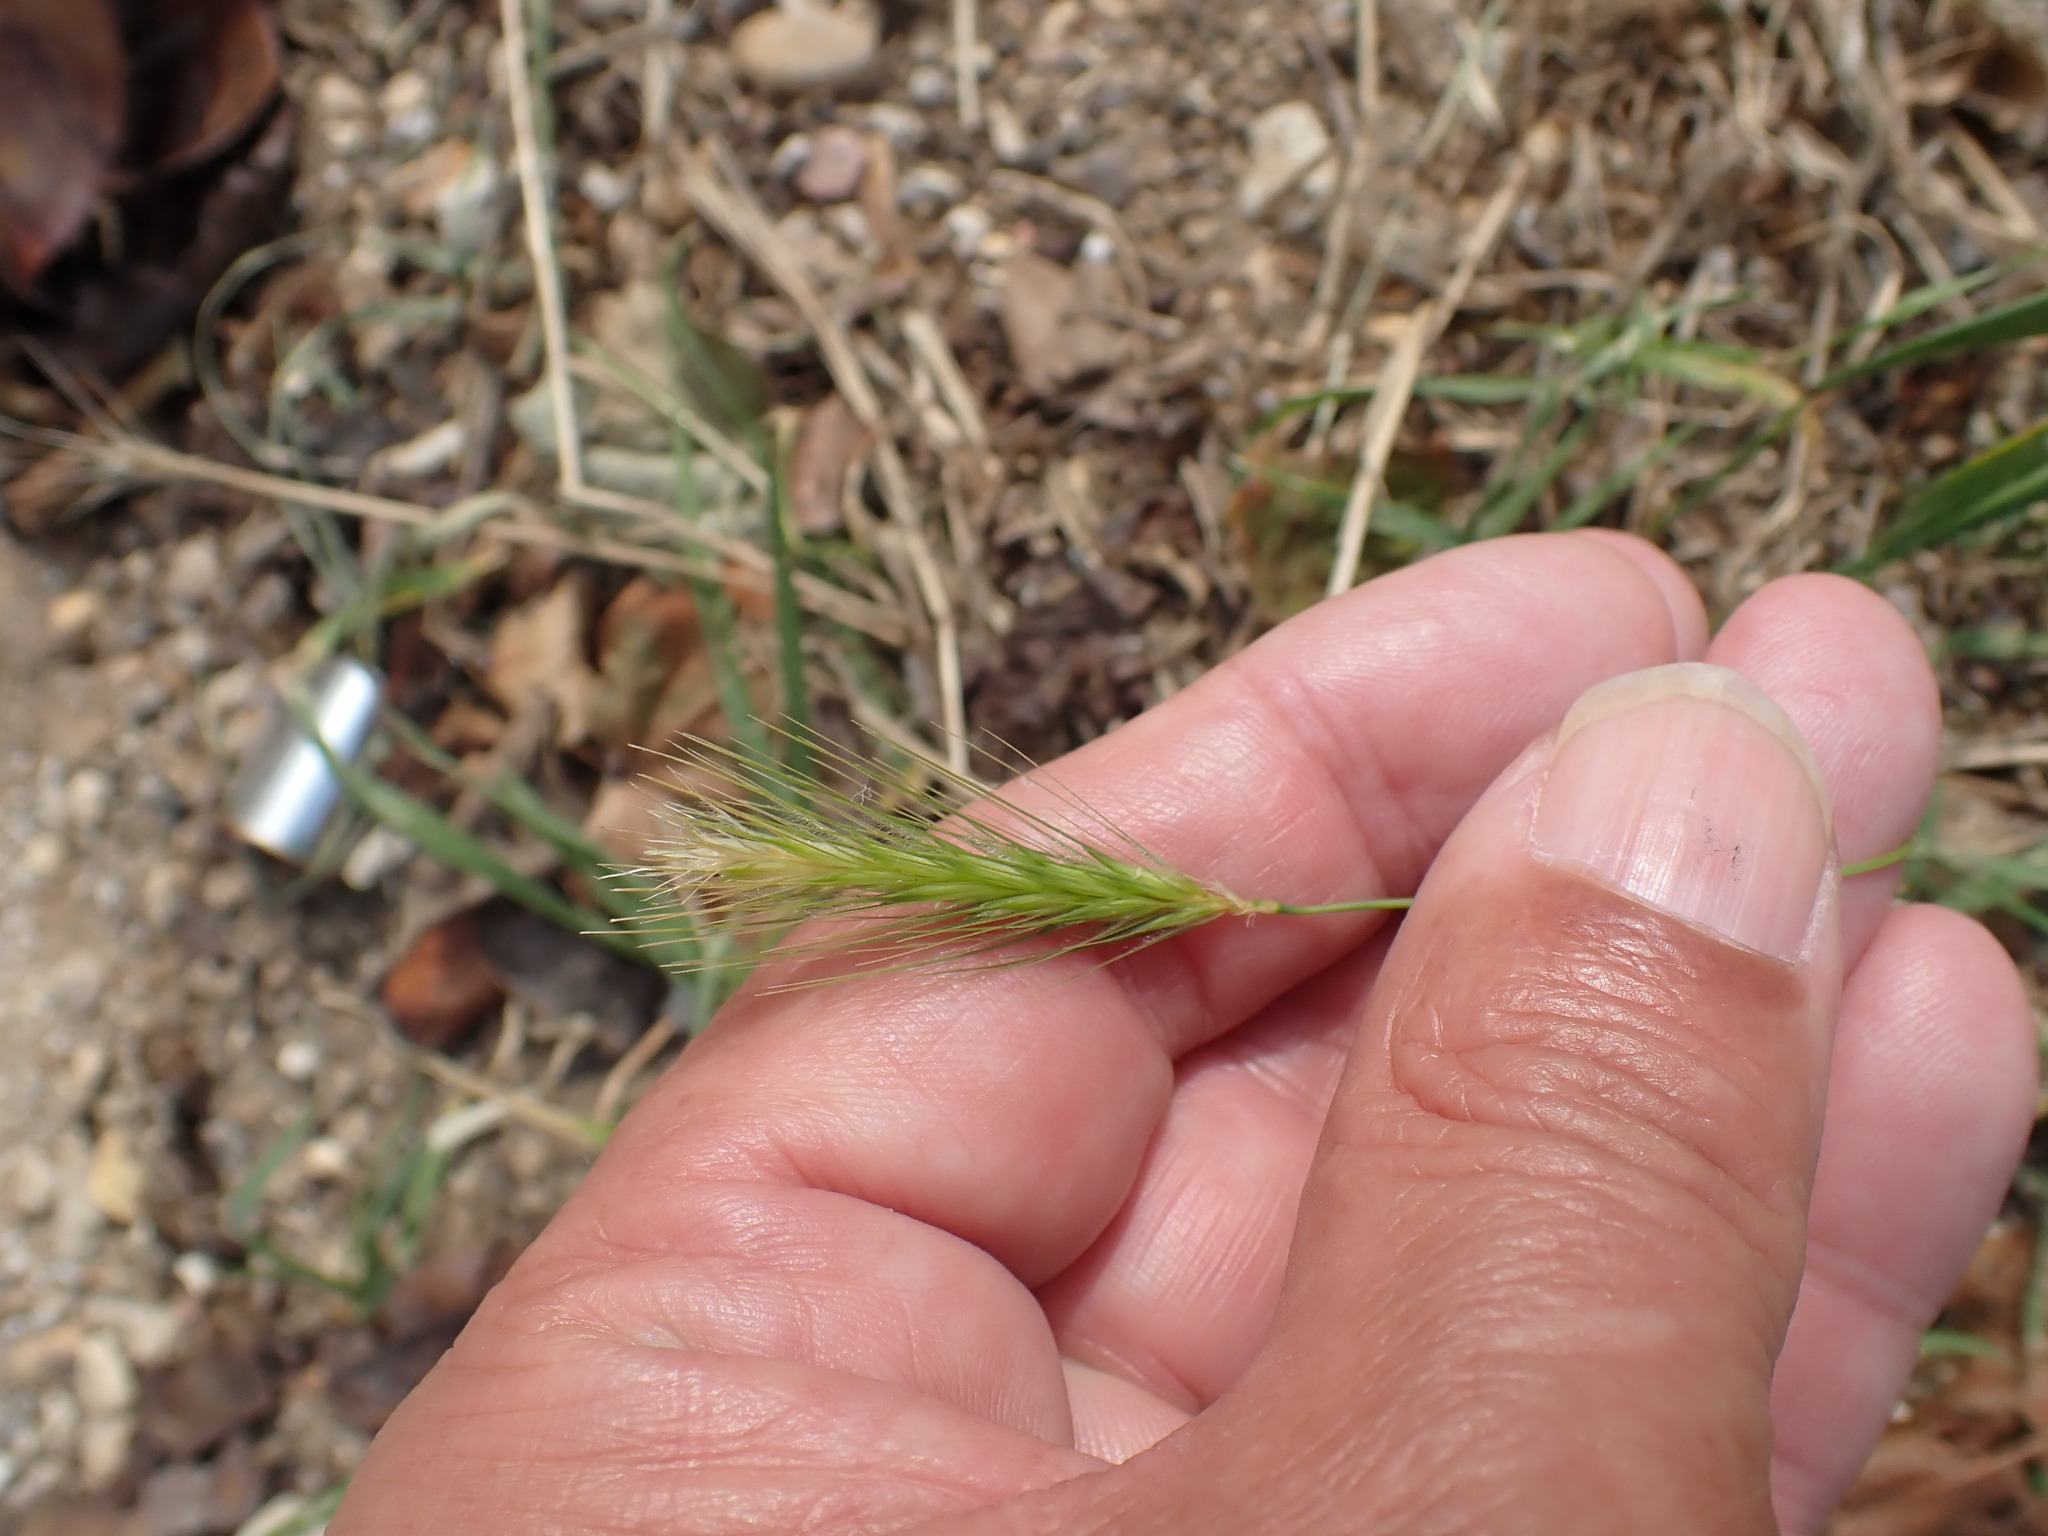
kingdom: Plantae
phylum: Tracheophyta
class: Liliopsida
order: Poales
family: Poaceae
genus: Hordeum
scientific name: Hordeum murinum
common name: Wall barley
